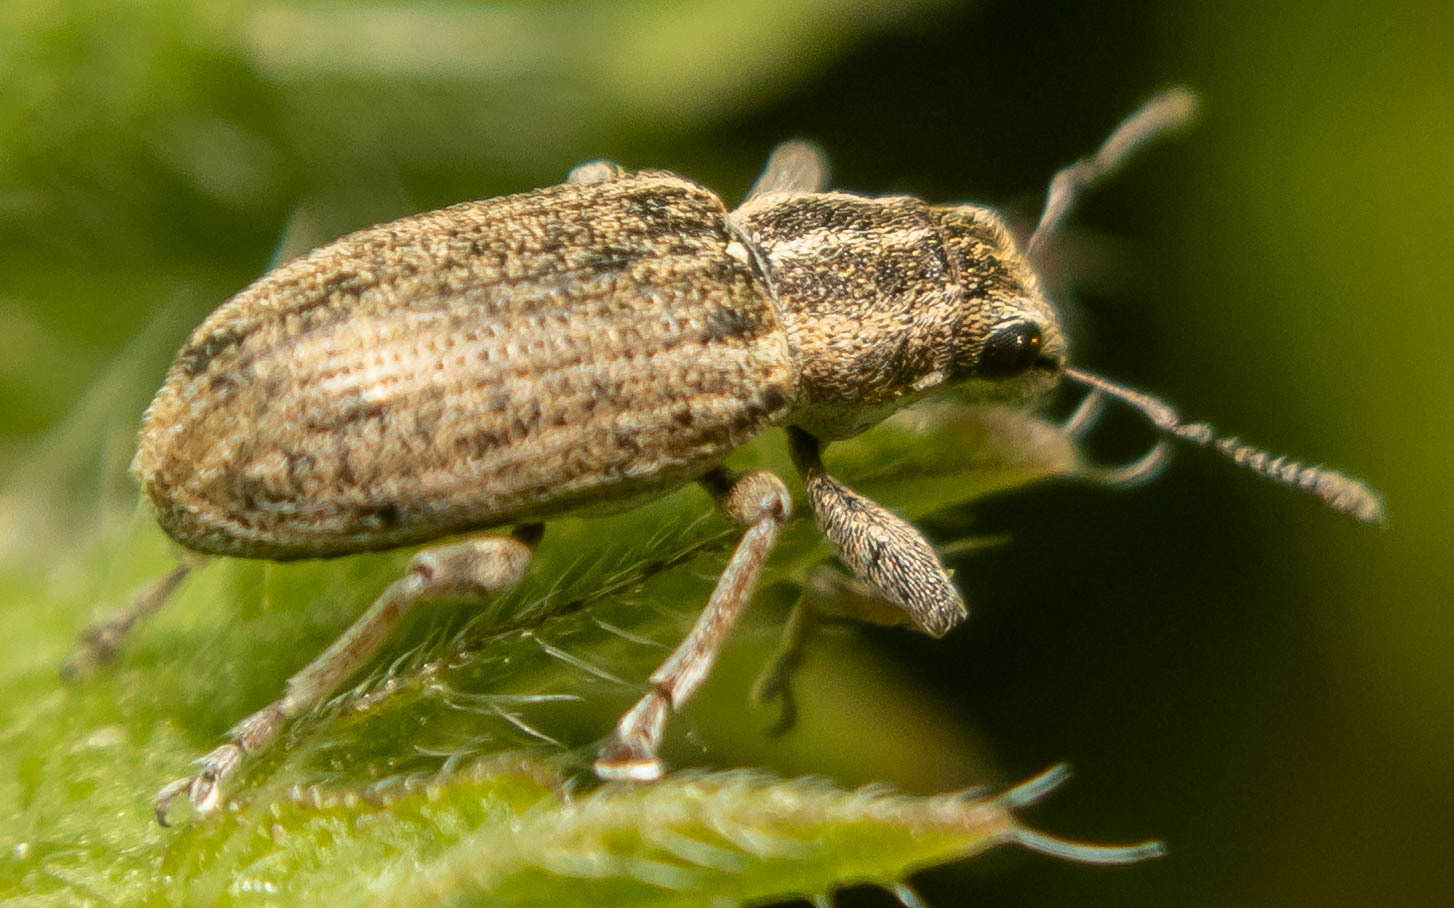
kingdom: Animalia
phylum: Arthropoda
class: Insecta
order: Coleoptera
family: Curculionidae
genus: Sitona
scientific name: Sitona lineatus
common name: Weevil
